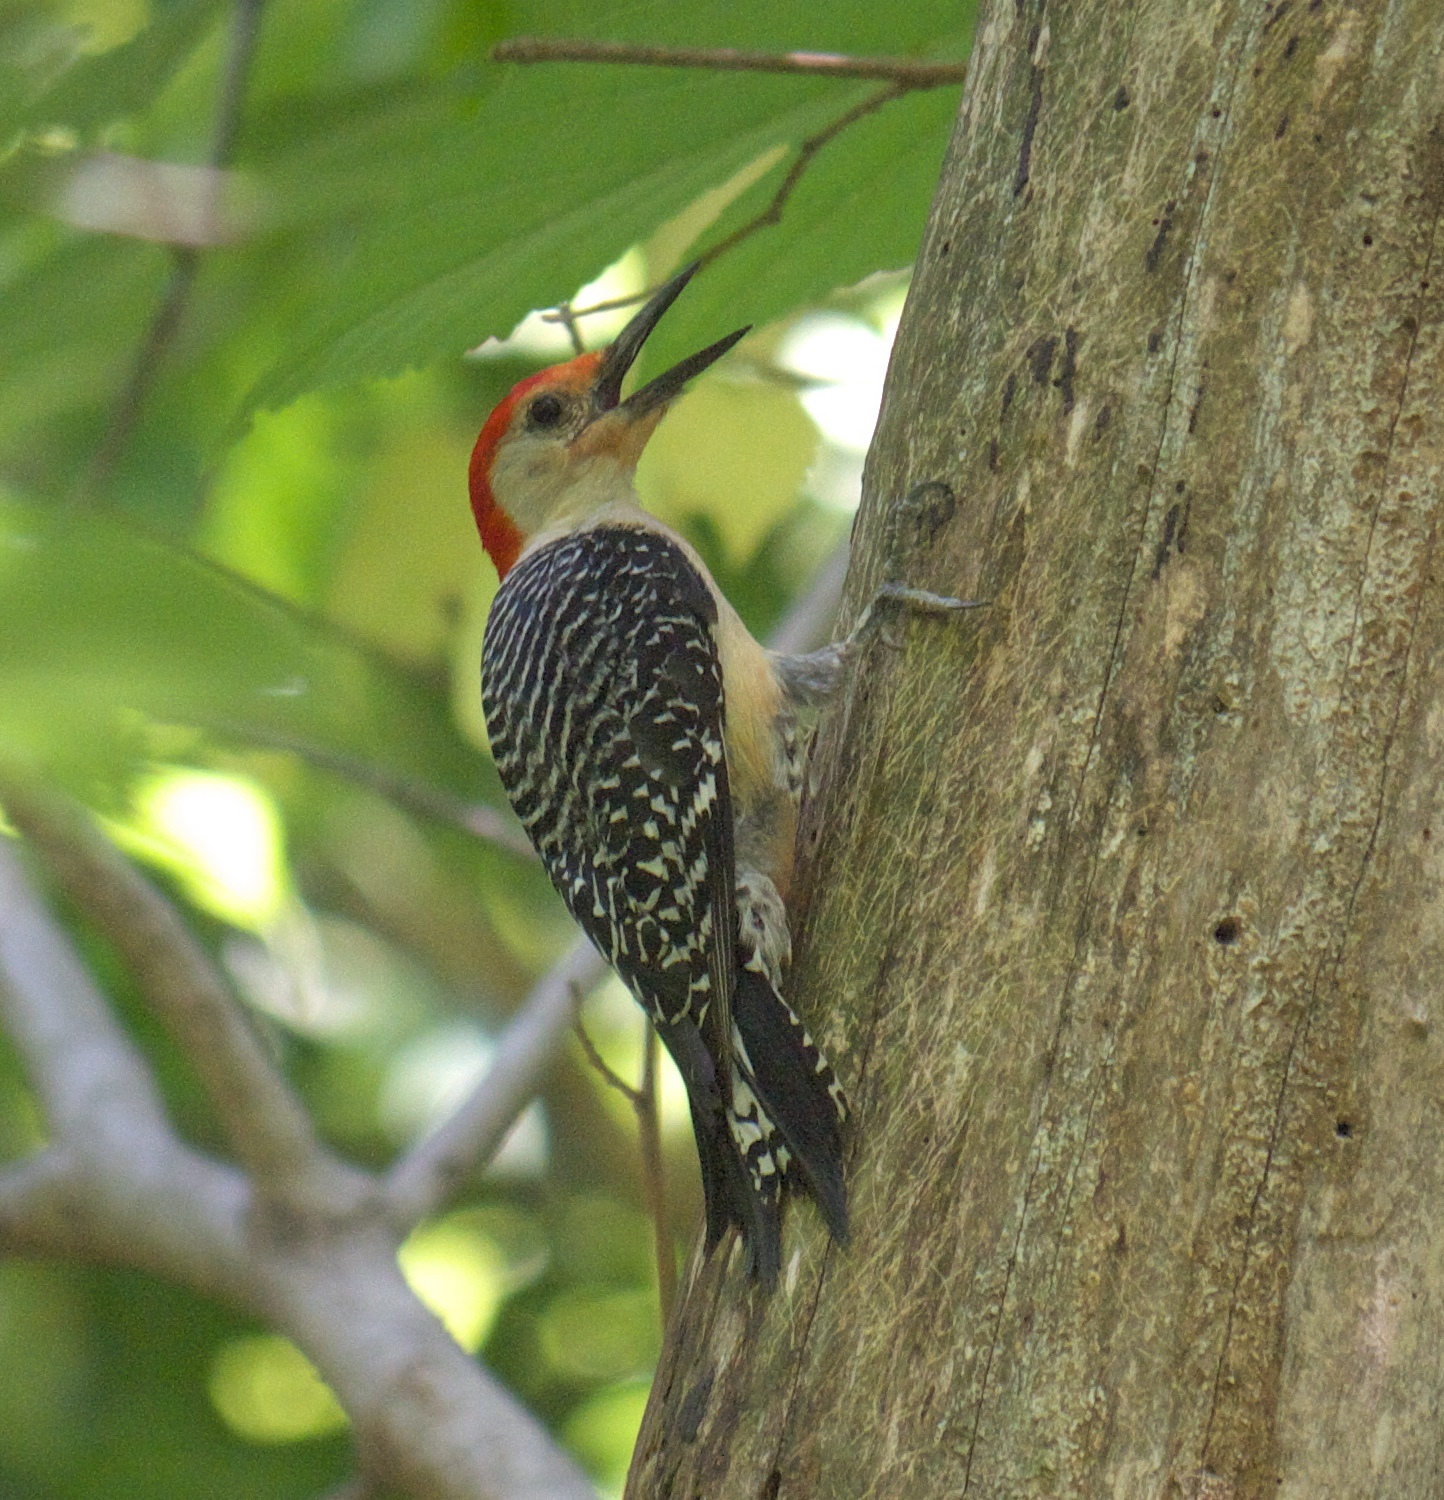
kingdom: Animalia
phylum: Chordata
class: Aves
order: Piciformes
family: Picidae
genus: Melanerpes
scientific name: Melanerpes carolinus
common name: Red-bellied woodpecker
